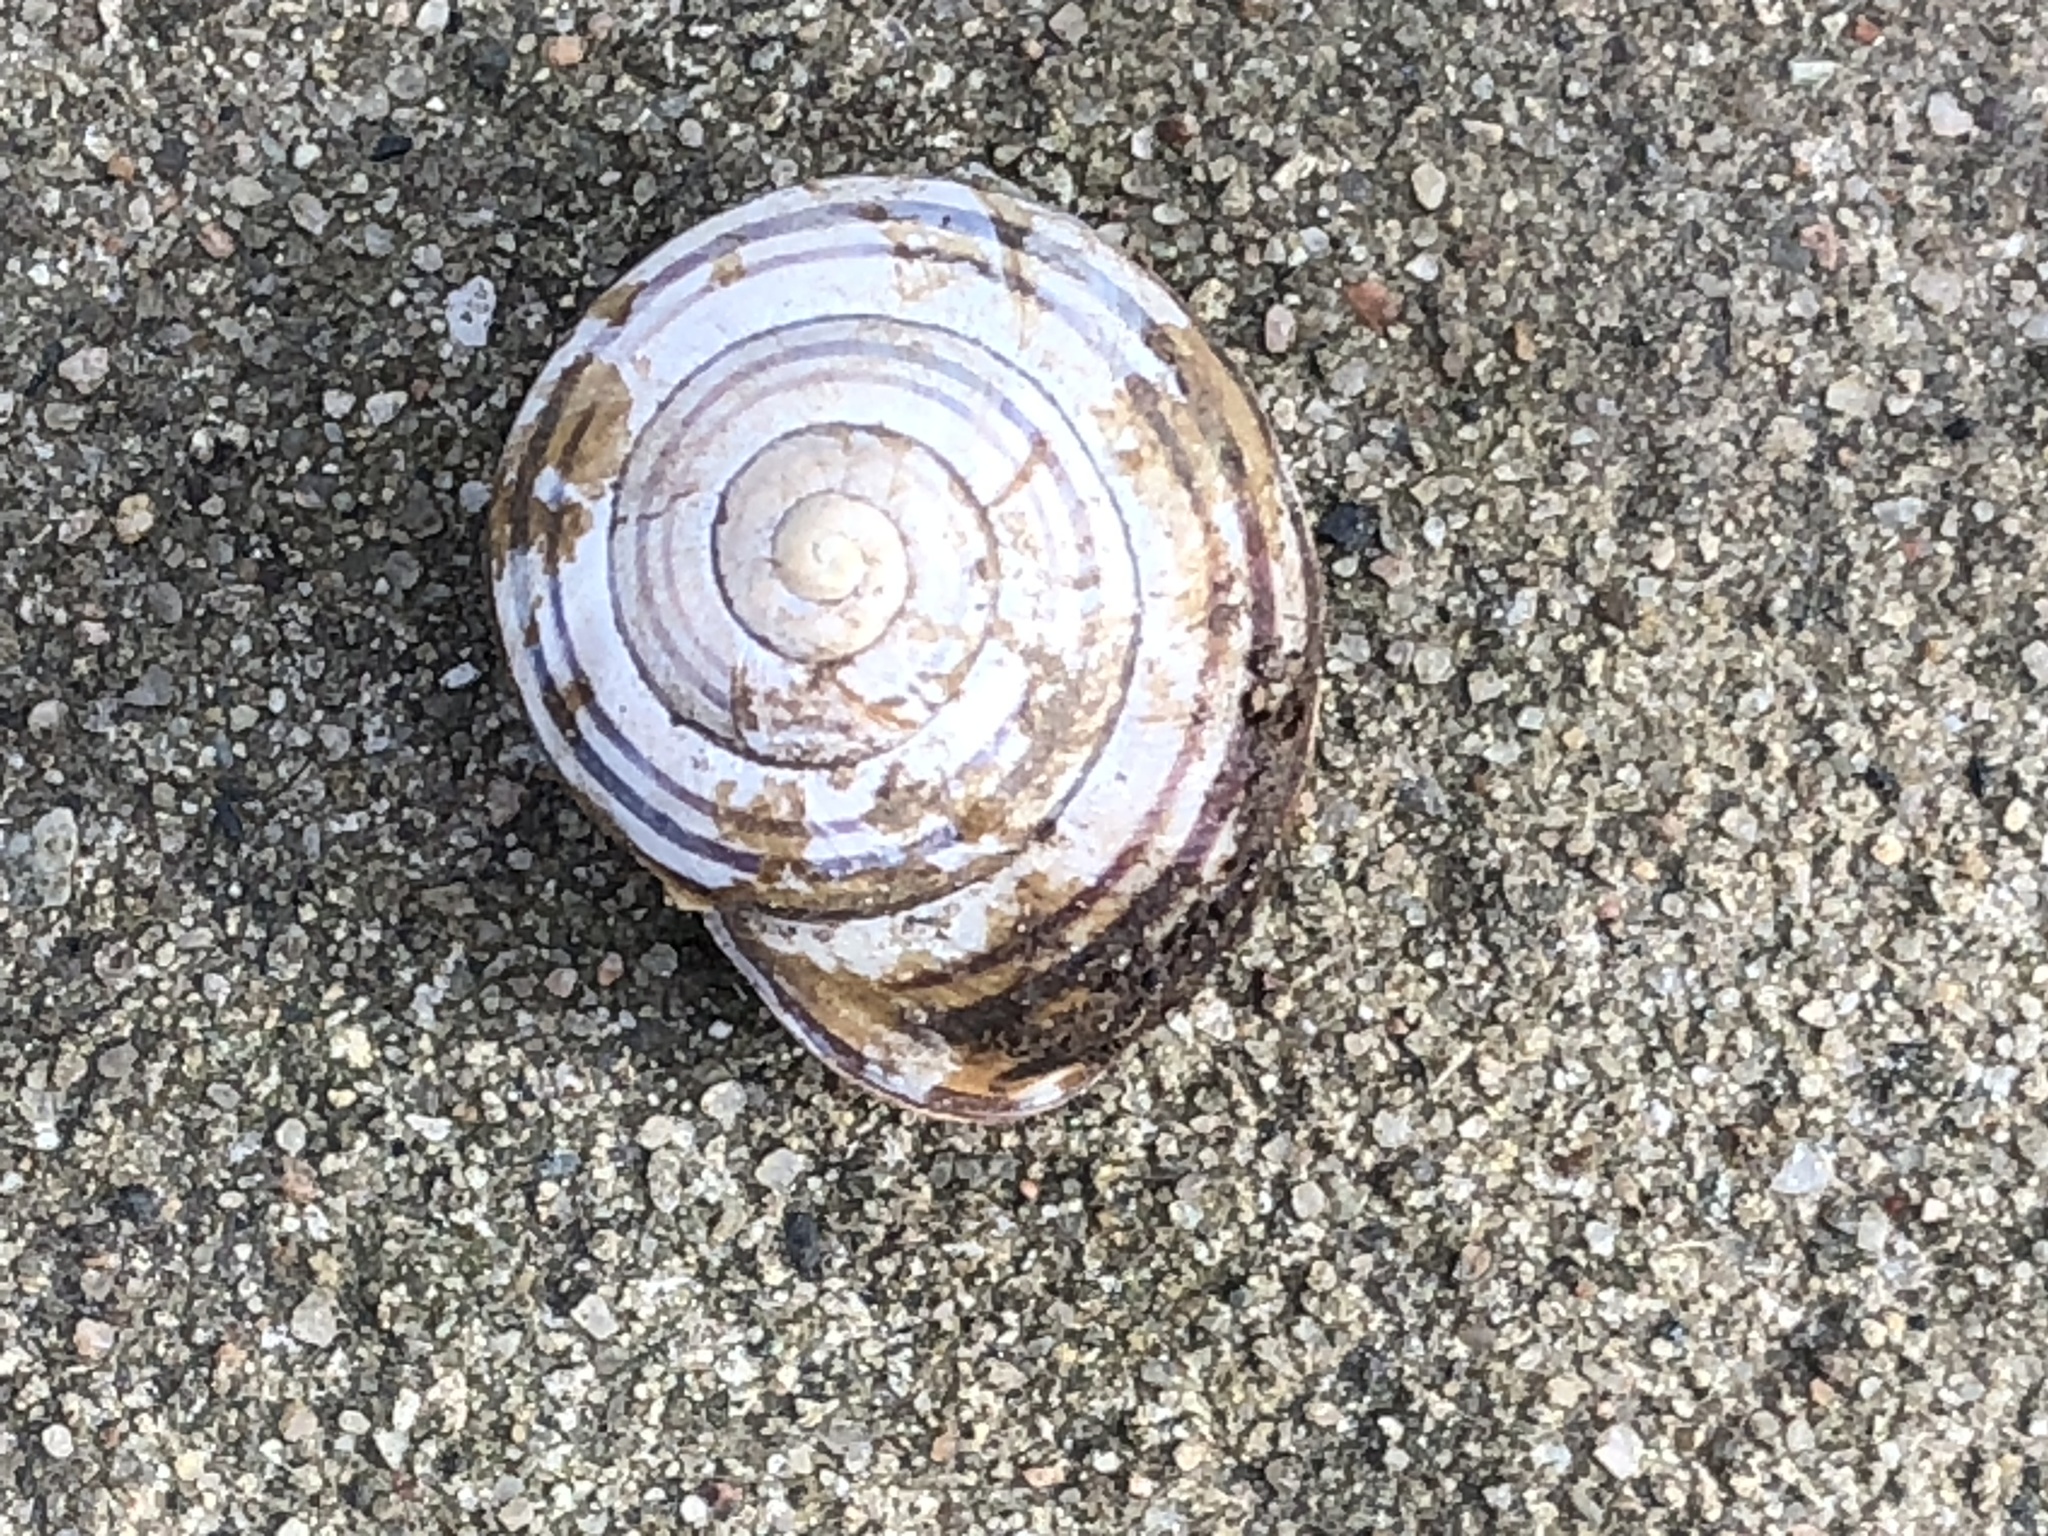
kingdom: Animalia
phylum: Mollusca
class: Gastropoda
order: Stylommatophora
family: Helicidae
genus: Cepaea
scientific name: Cepaea nemoralis
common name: Grovesnail
